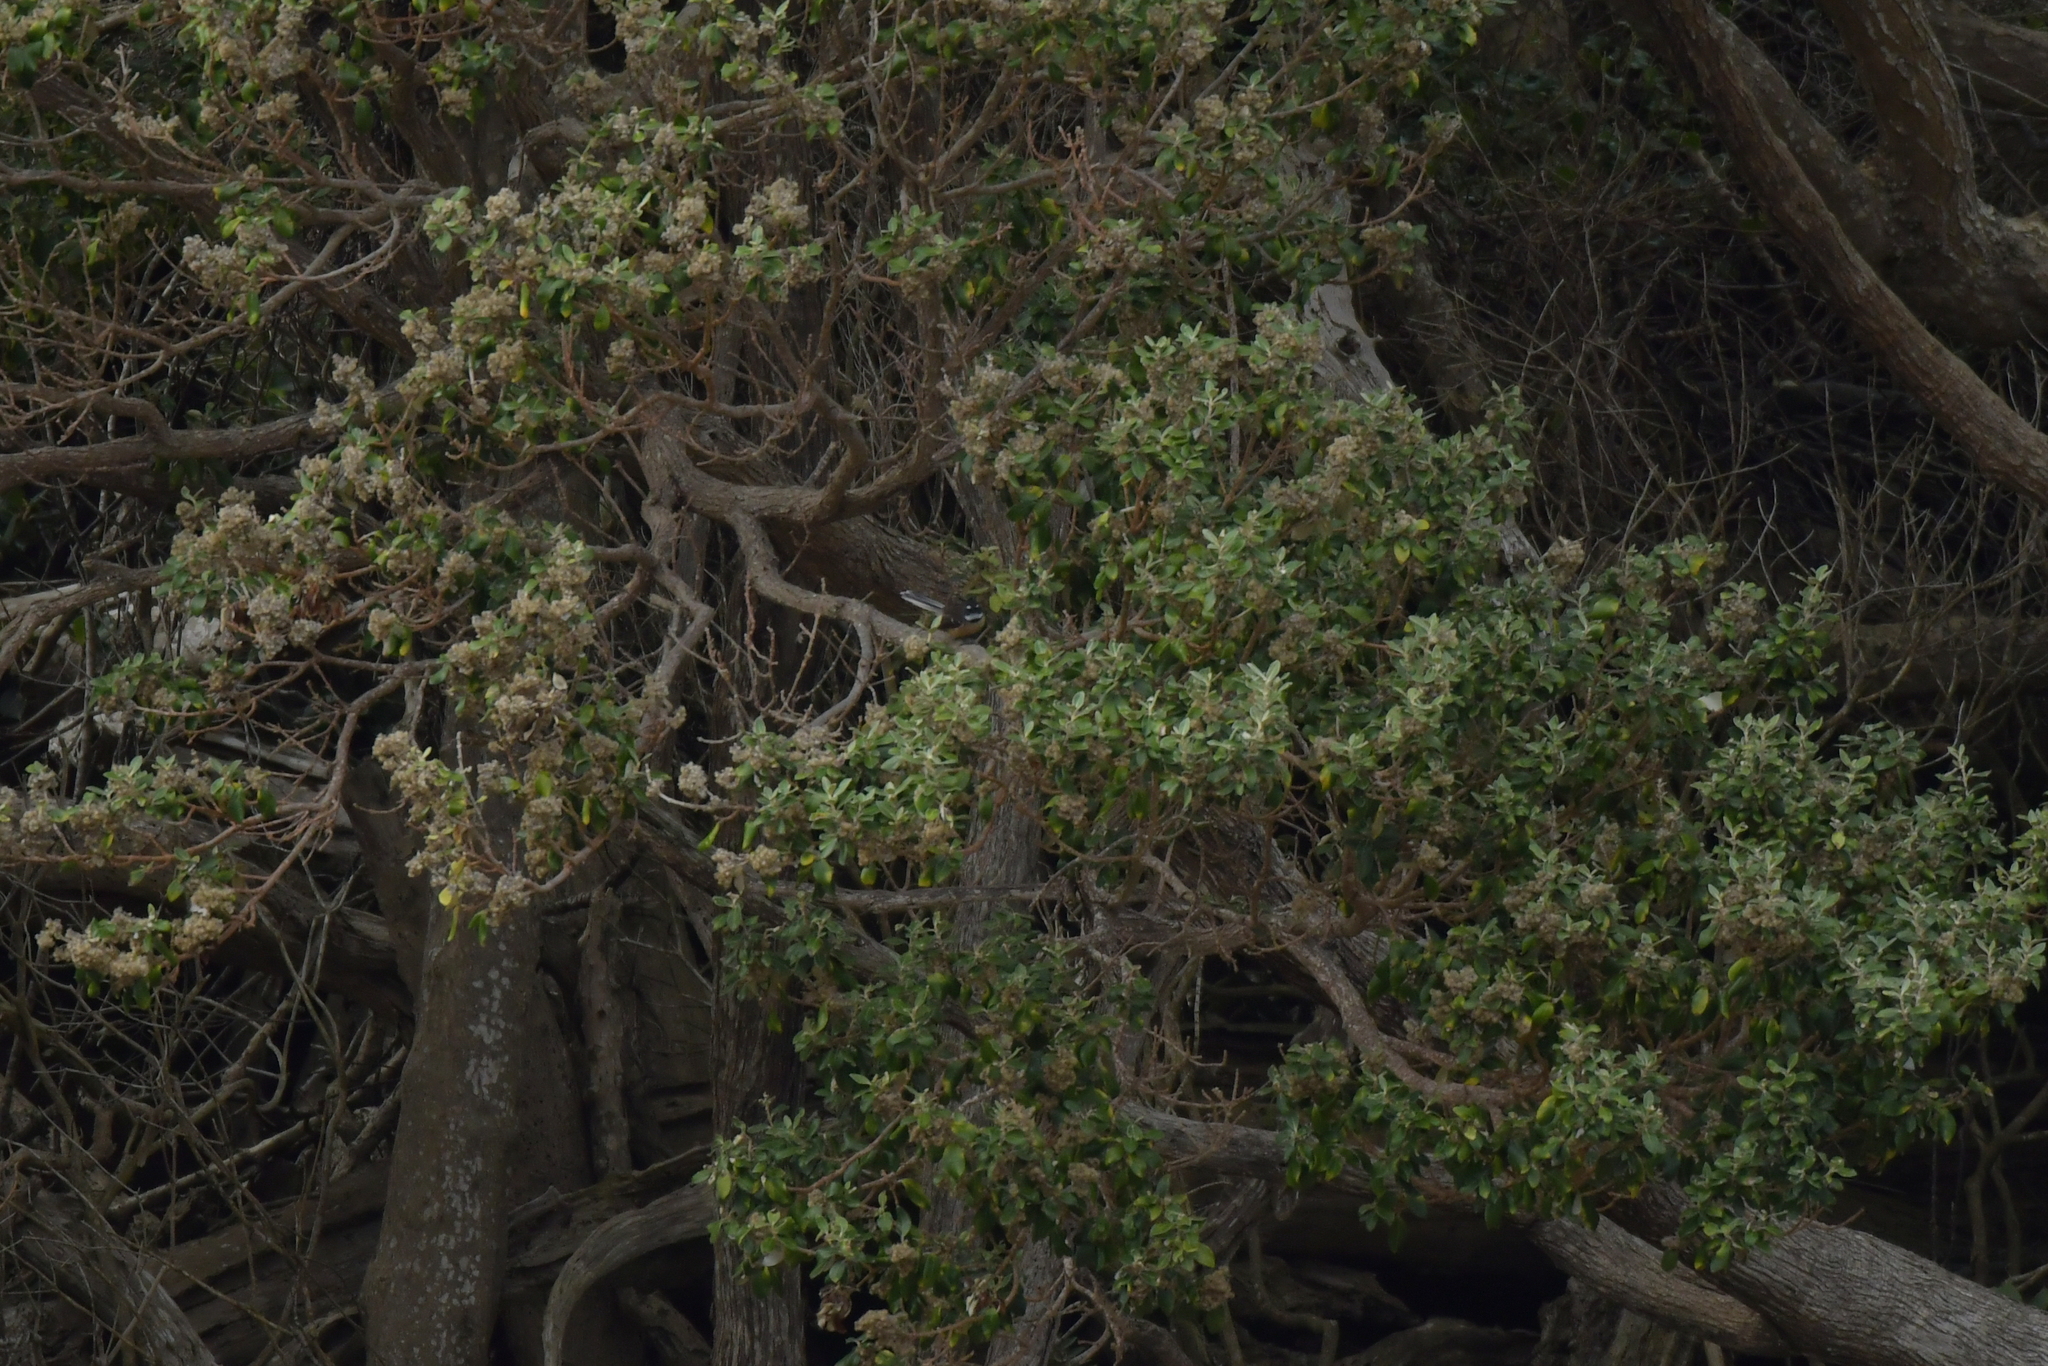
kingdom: Animalia
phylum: Chordata
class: Aves
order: Passeriformes
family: Rhipiduridae
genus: Rhipidura
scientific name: Rhipidura fuliginosa
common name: New zealand fantail
